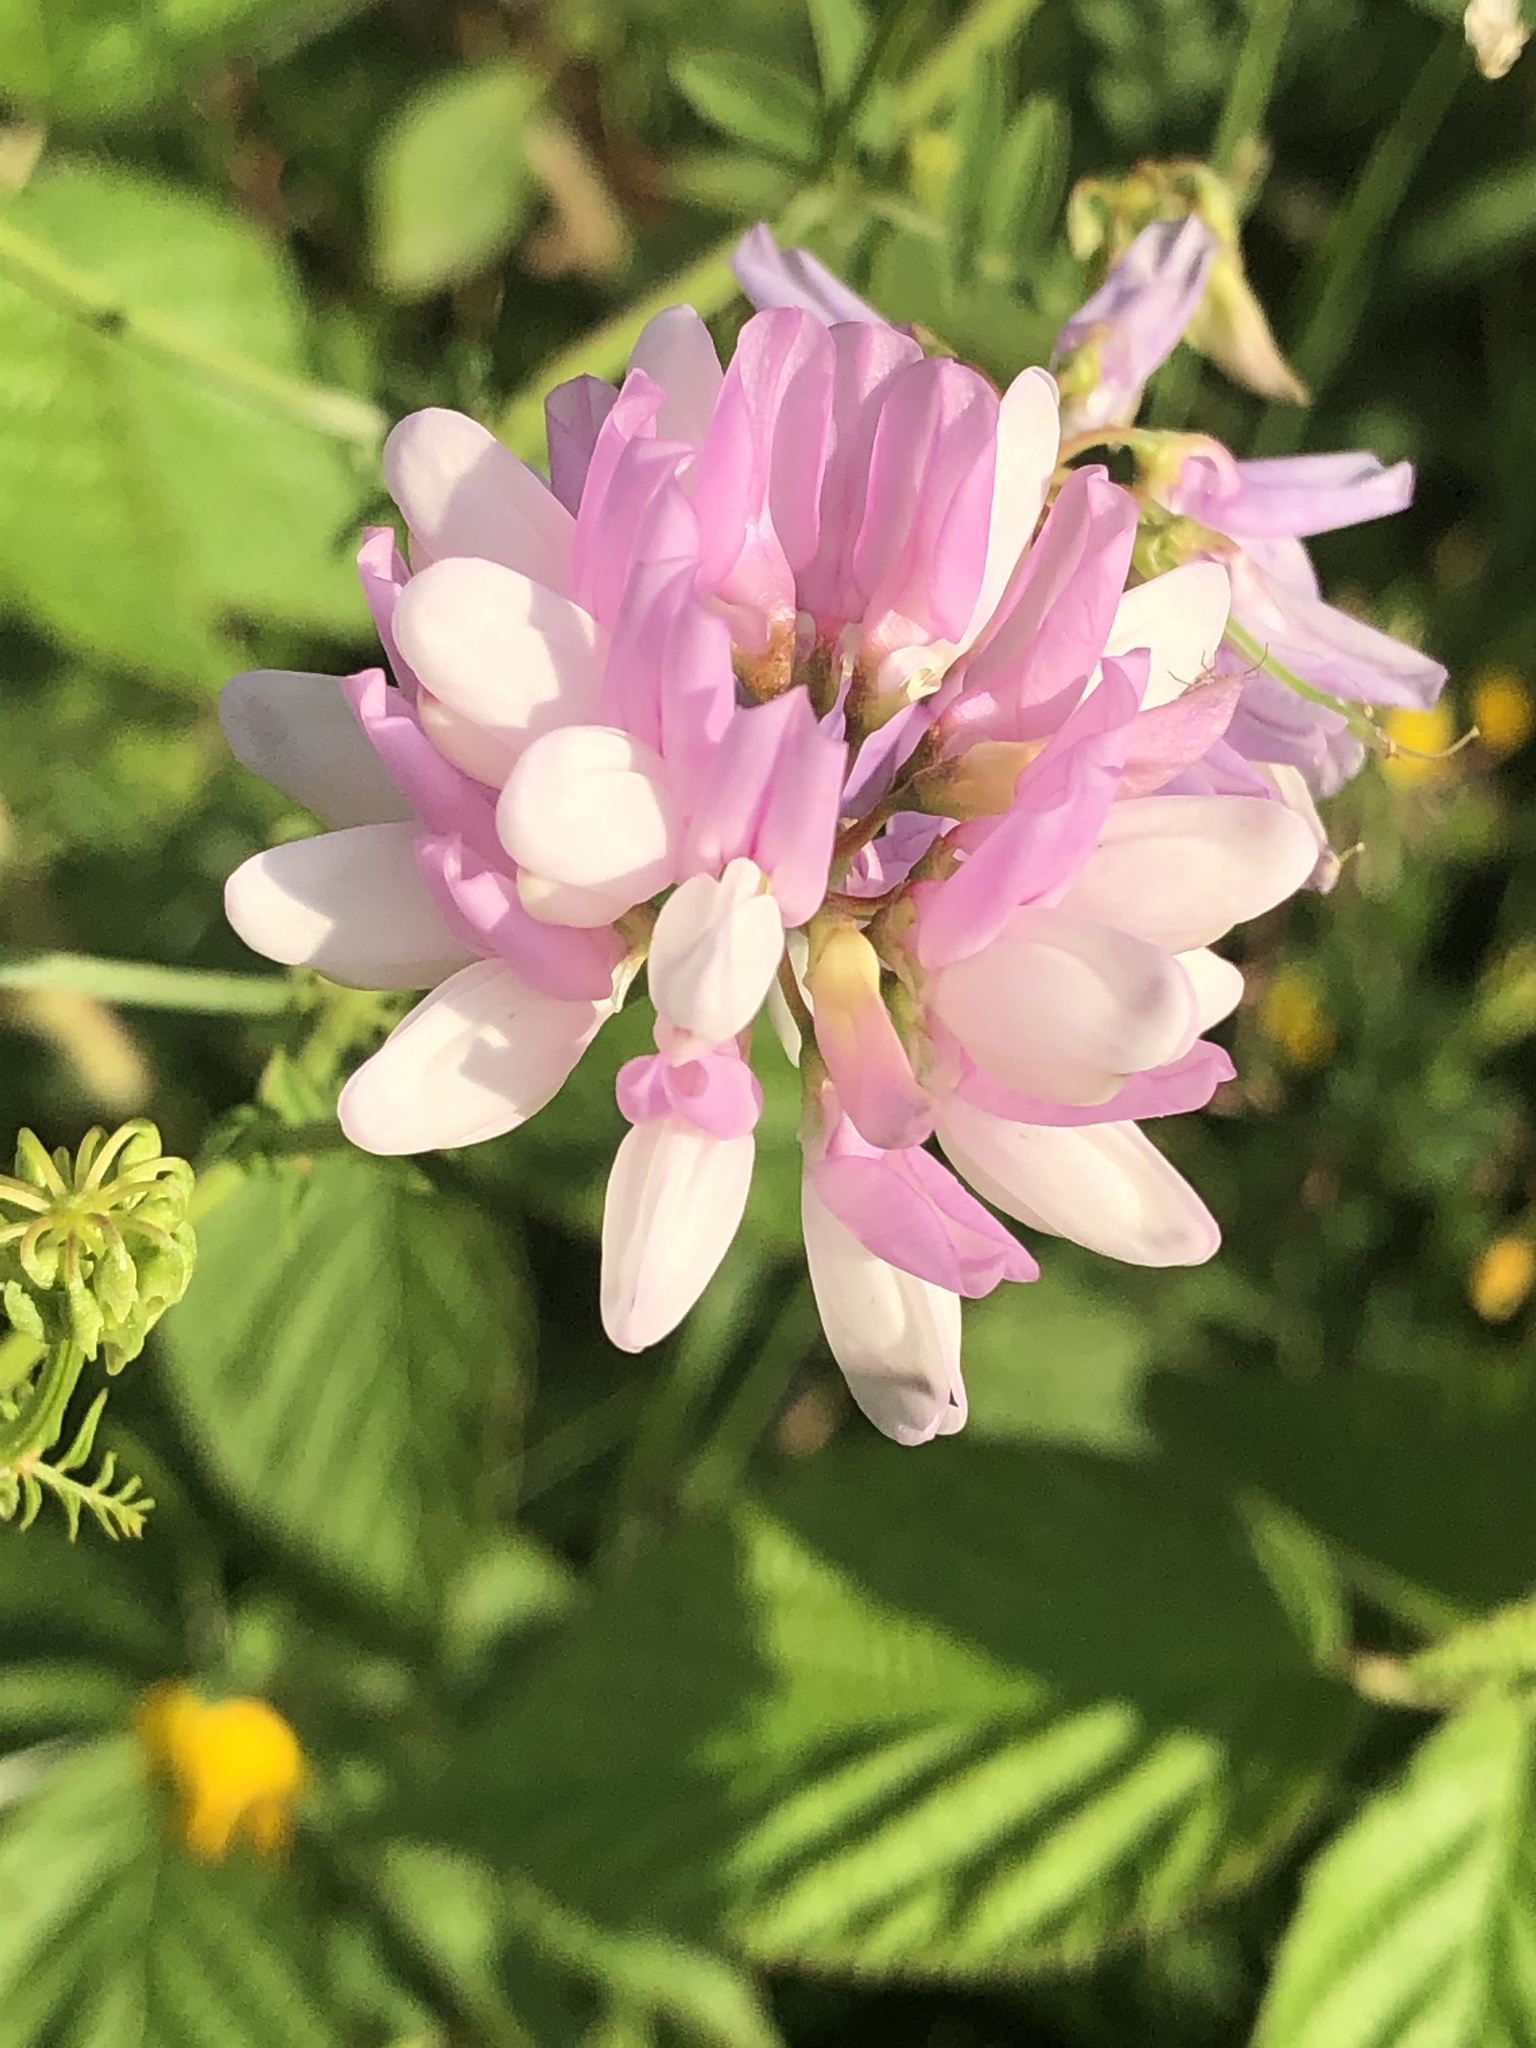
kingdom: Plantae
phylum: Tracheophyta
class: Magnoliopsida
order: Fabales
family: Fabaceae
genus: Coronilla
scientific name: Coronilla varia
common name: Crownvetch
